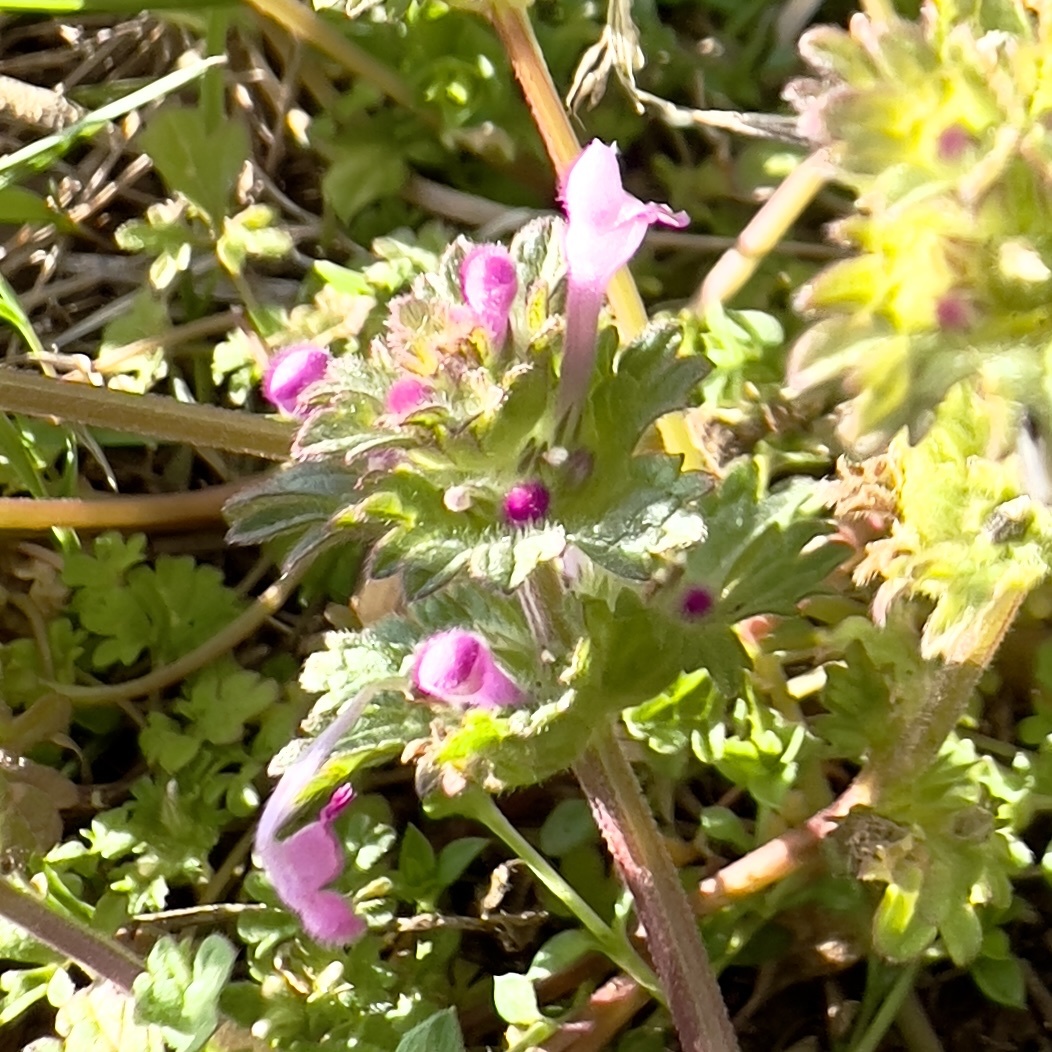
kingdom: Plantae
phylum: Tracheophyta
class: Magnoliopsida
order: Lamiales
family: Lamiaceae
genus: Lamium
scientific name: Lamium amplexicaule
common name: Henbit dead-nettle
